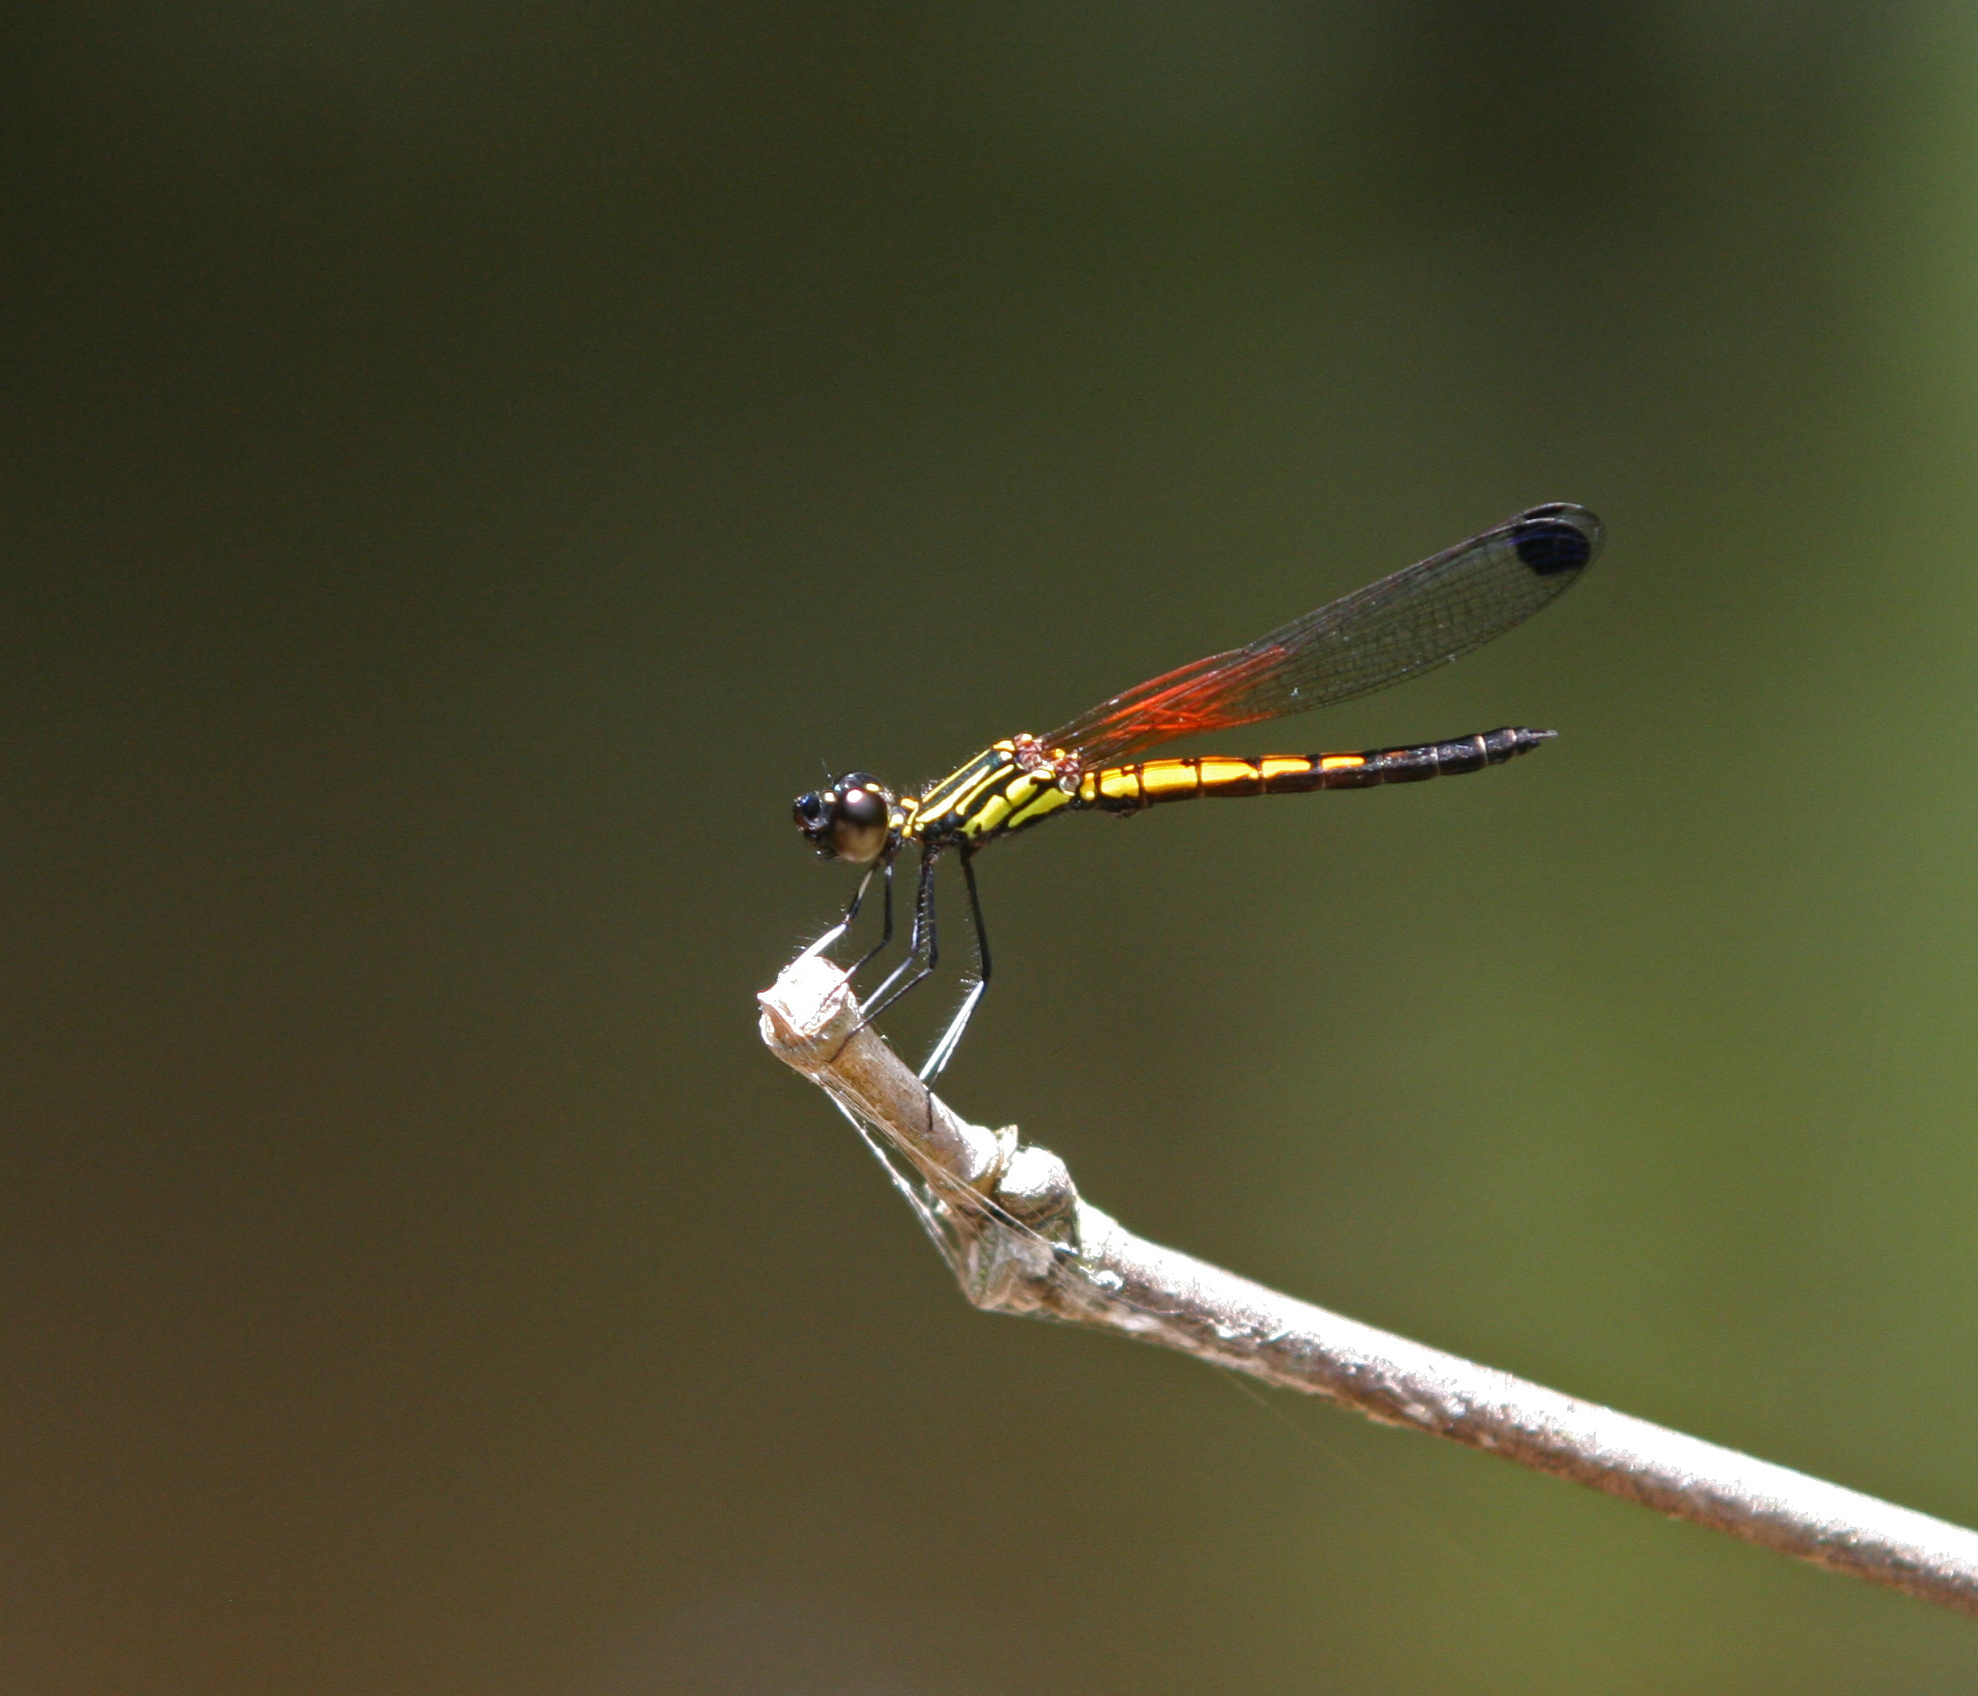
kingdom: Animalia
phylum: Arthropoda
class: Insecta
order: Odonata
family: Chlorocyphidae
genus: Libellago
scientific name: Libellago lineata
